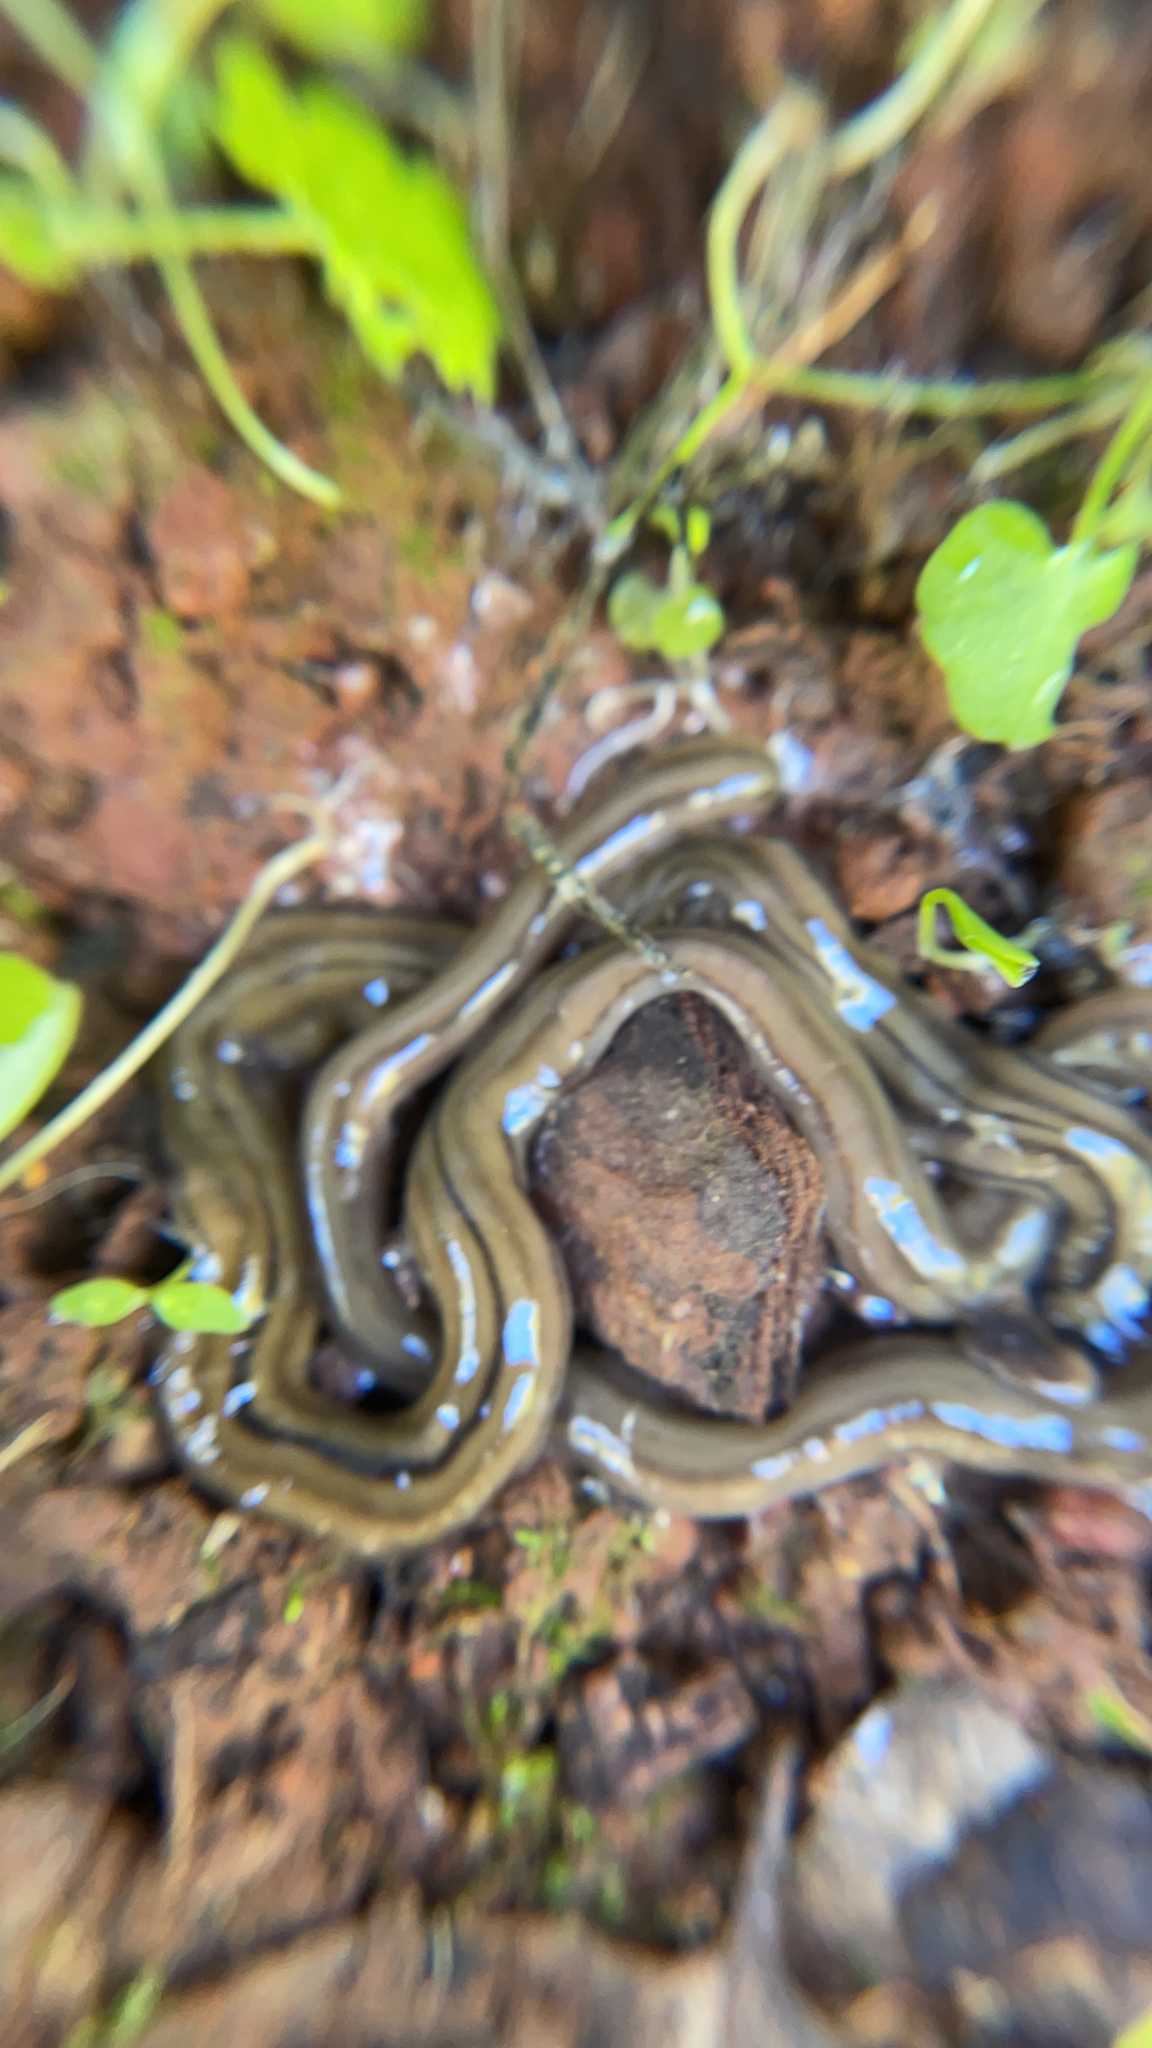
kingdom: Animalia
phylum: Platyhelminthes
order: Tricladida
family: Geoplanidae
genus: Bipalium
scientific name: Bipalium kewense
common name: Hammerhead flatworm
